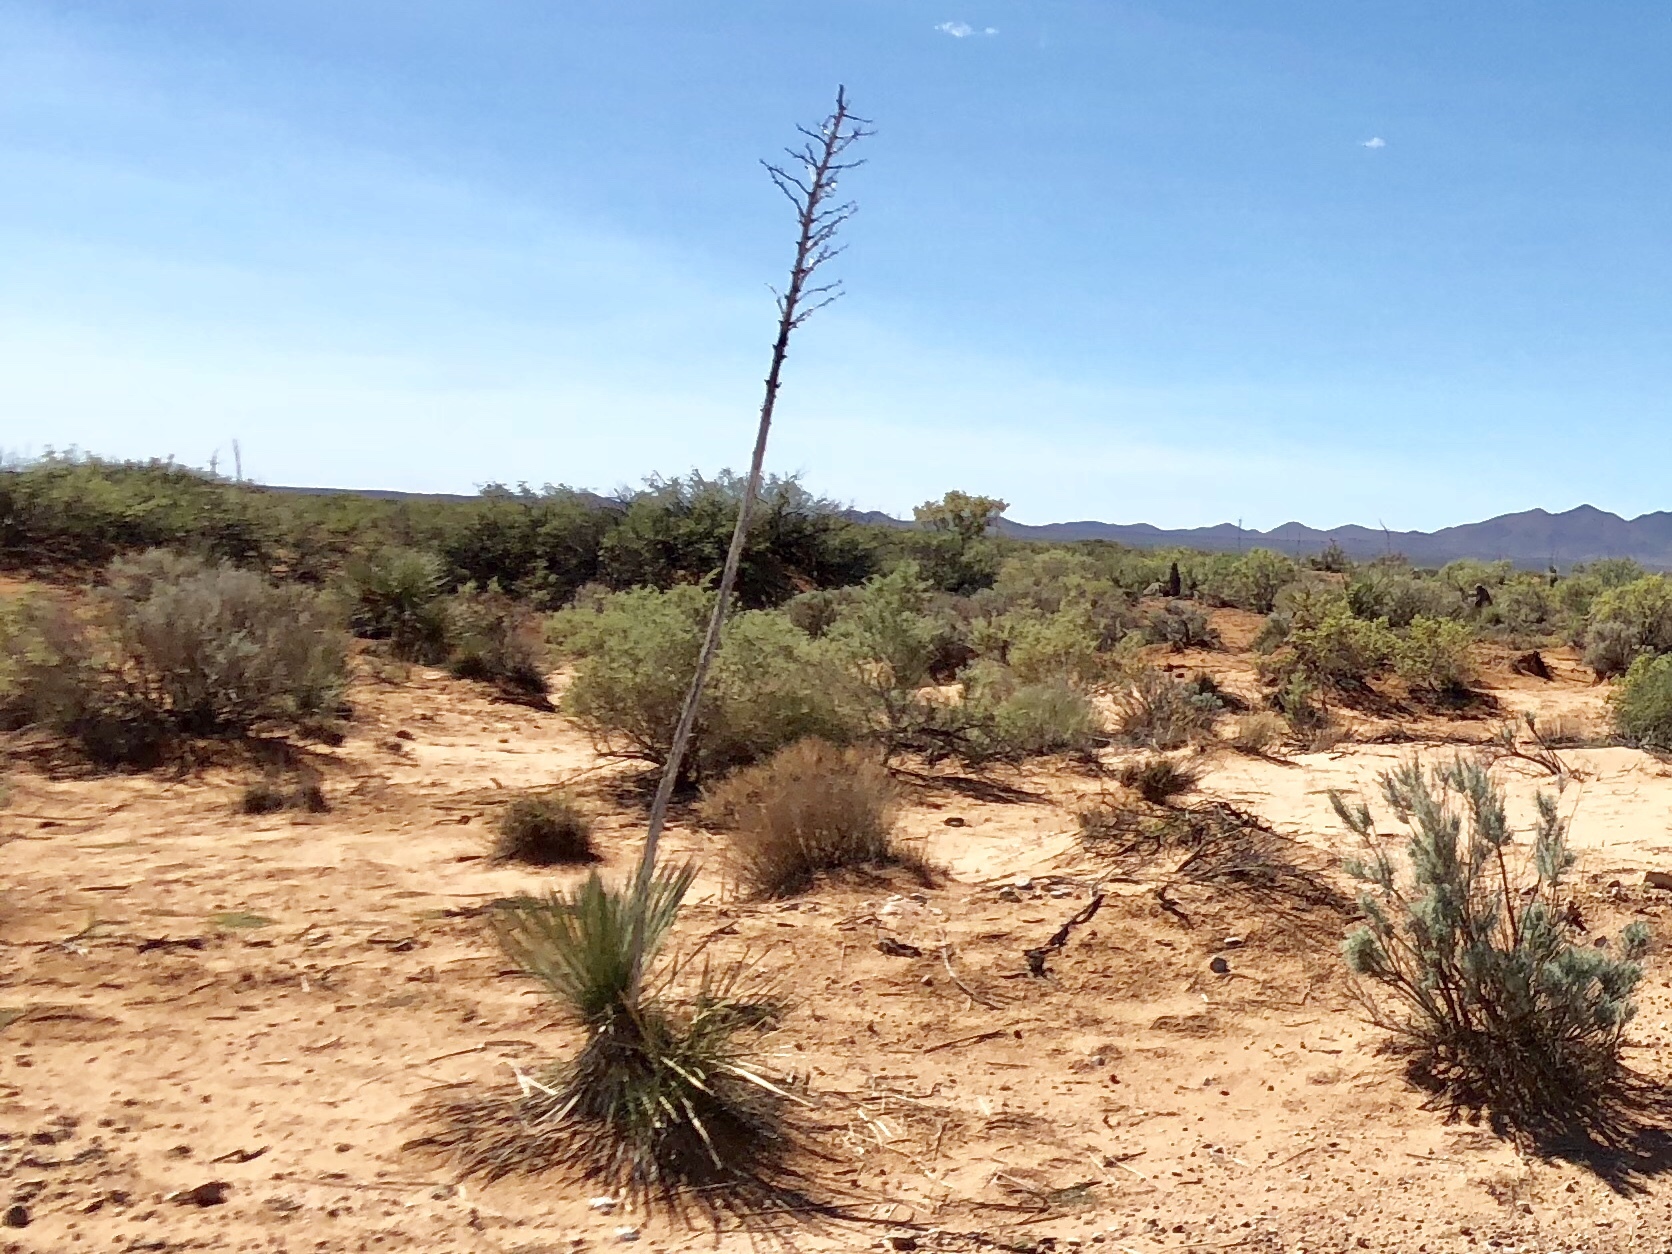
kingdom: Plantae
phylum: Tracheophyta
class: Liliopsida
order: Asparagales
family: Asparagaceae
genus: Yucca
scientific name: Yucca elata
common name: Palmella
